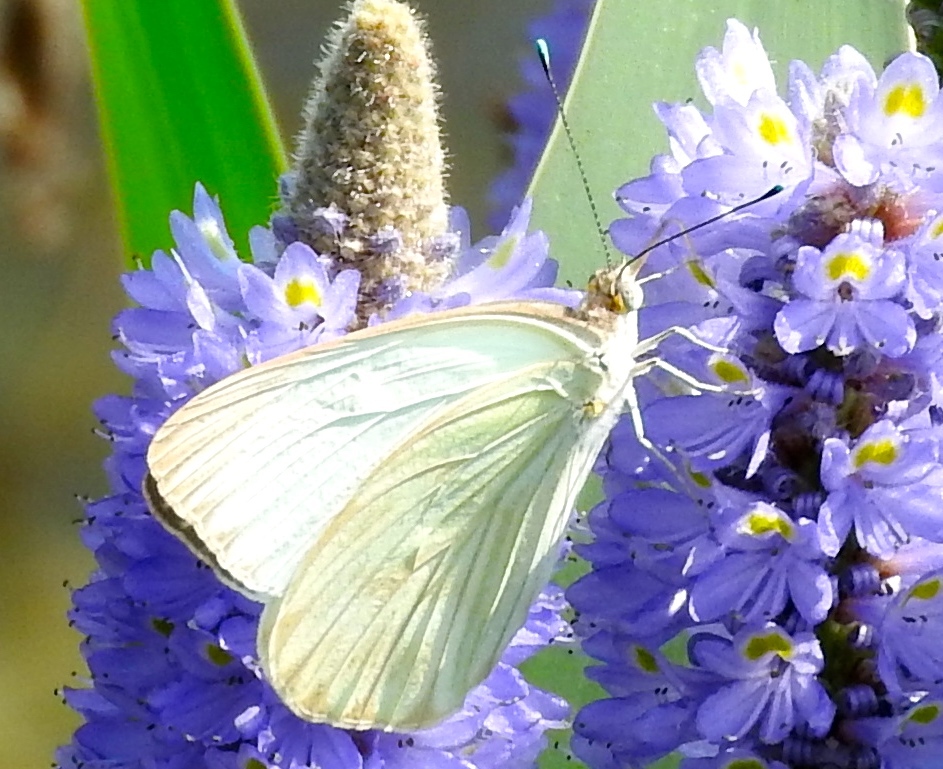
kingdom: Animalia
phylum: Arthropoda
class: Insecta
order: Lepidoptera
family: Pieridae
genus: Ascia
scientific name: Ascia monuste
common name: Great southern white
